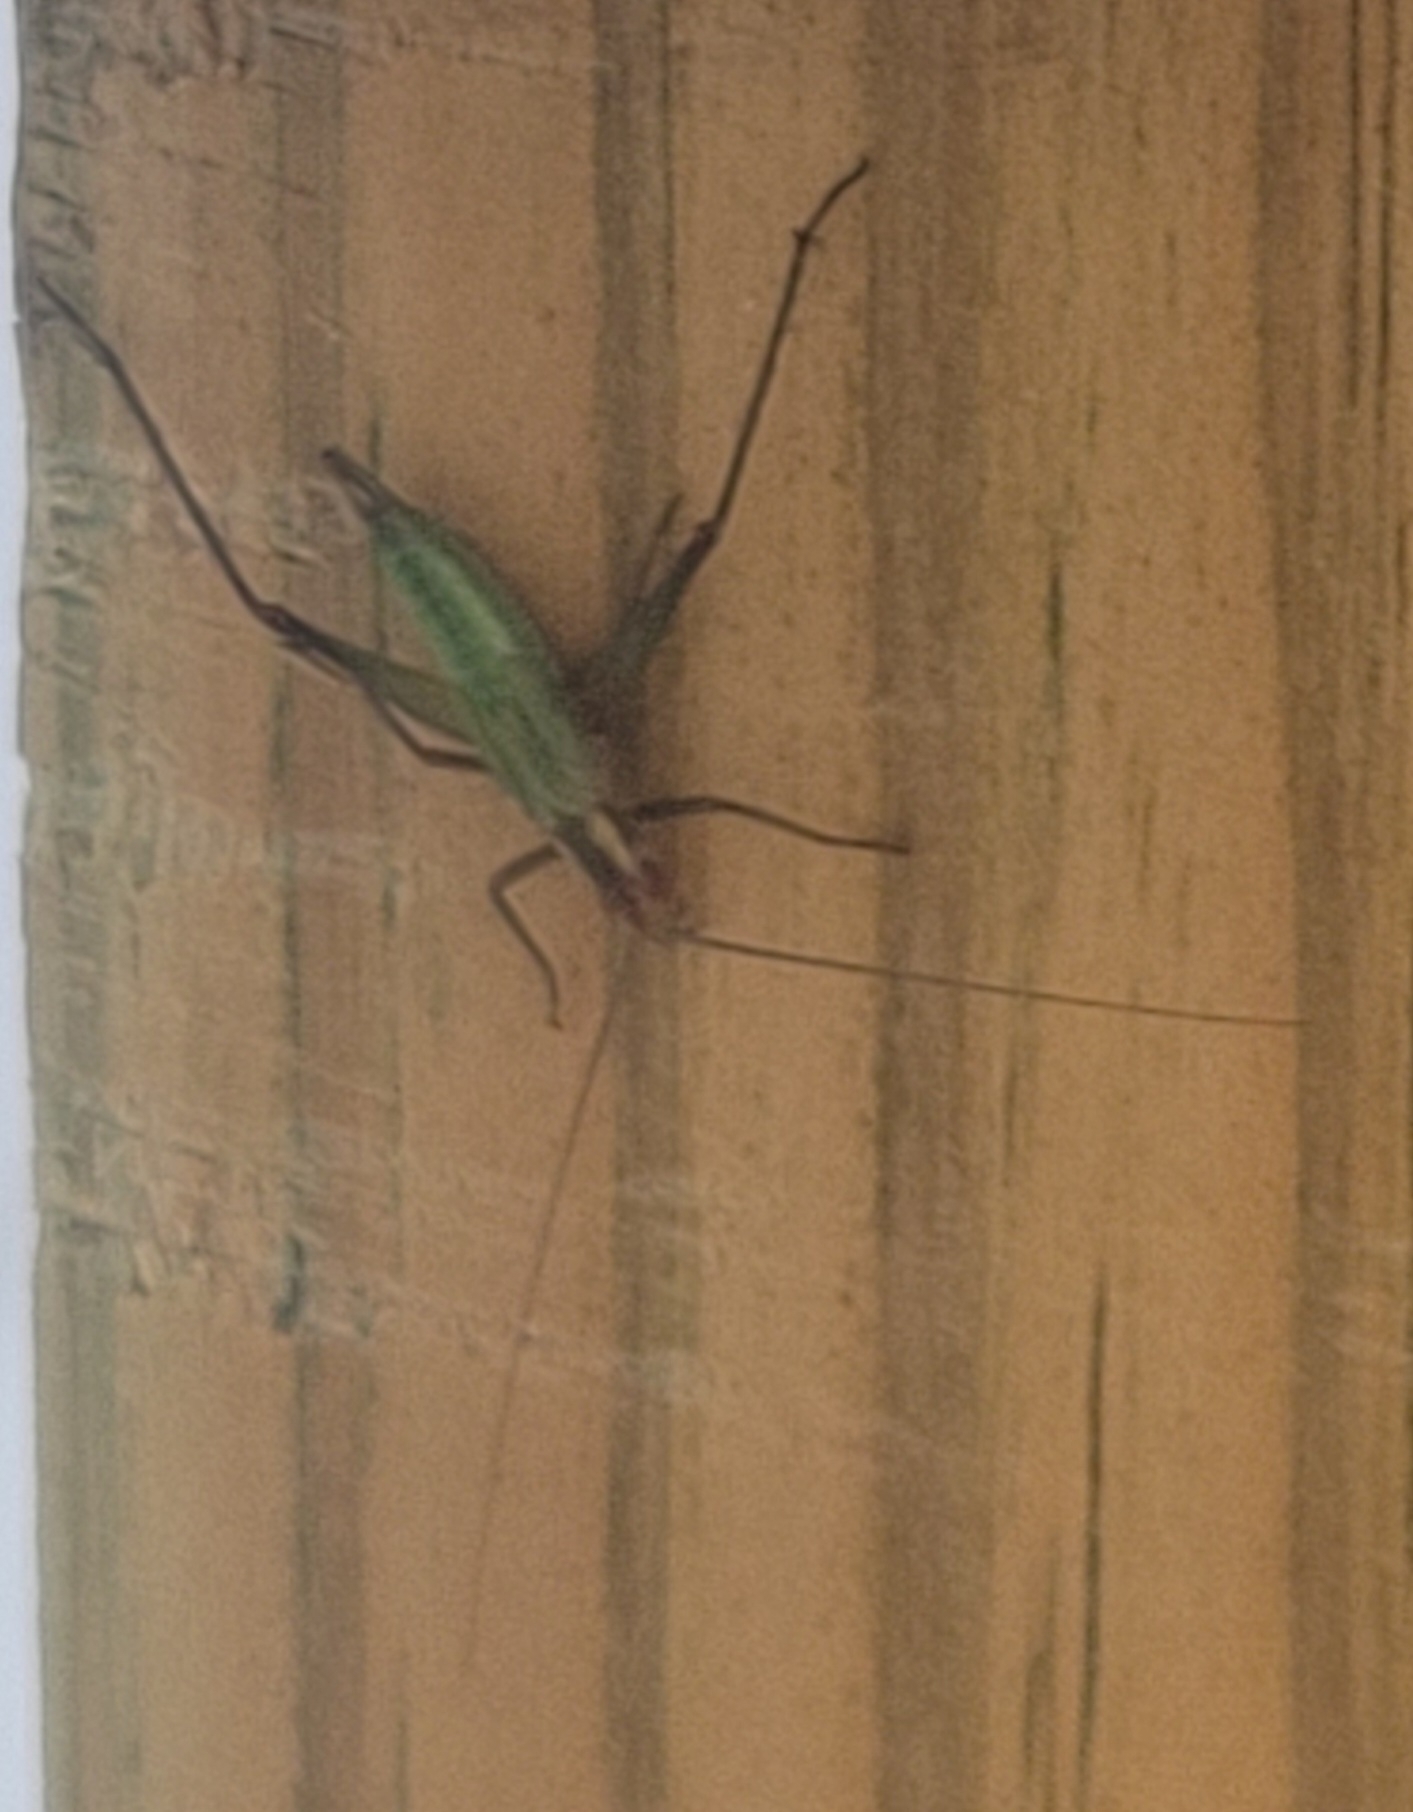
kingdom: Animalia
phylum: Arthropoda
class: Insecta
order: Orthoptera
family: Gryllidae
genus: Oecanthus
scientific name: Oecanthus pini
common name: Pine tree cricket
